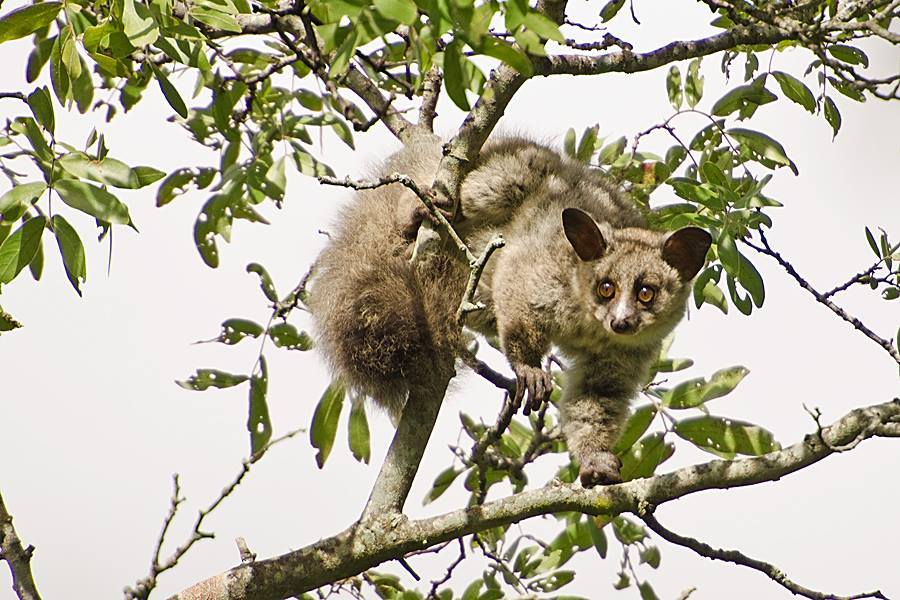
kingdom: Animalia
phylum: Chordata
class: Mammalia
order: Primates
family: Galagidae
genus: Otolemur
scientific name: Otolemur crassicaudatus
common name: Brown greater galago
